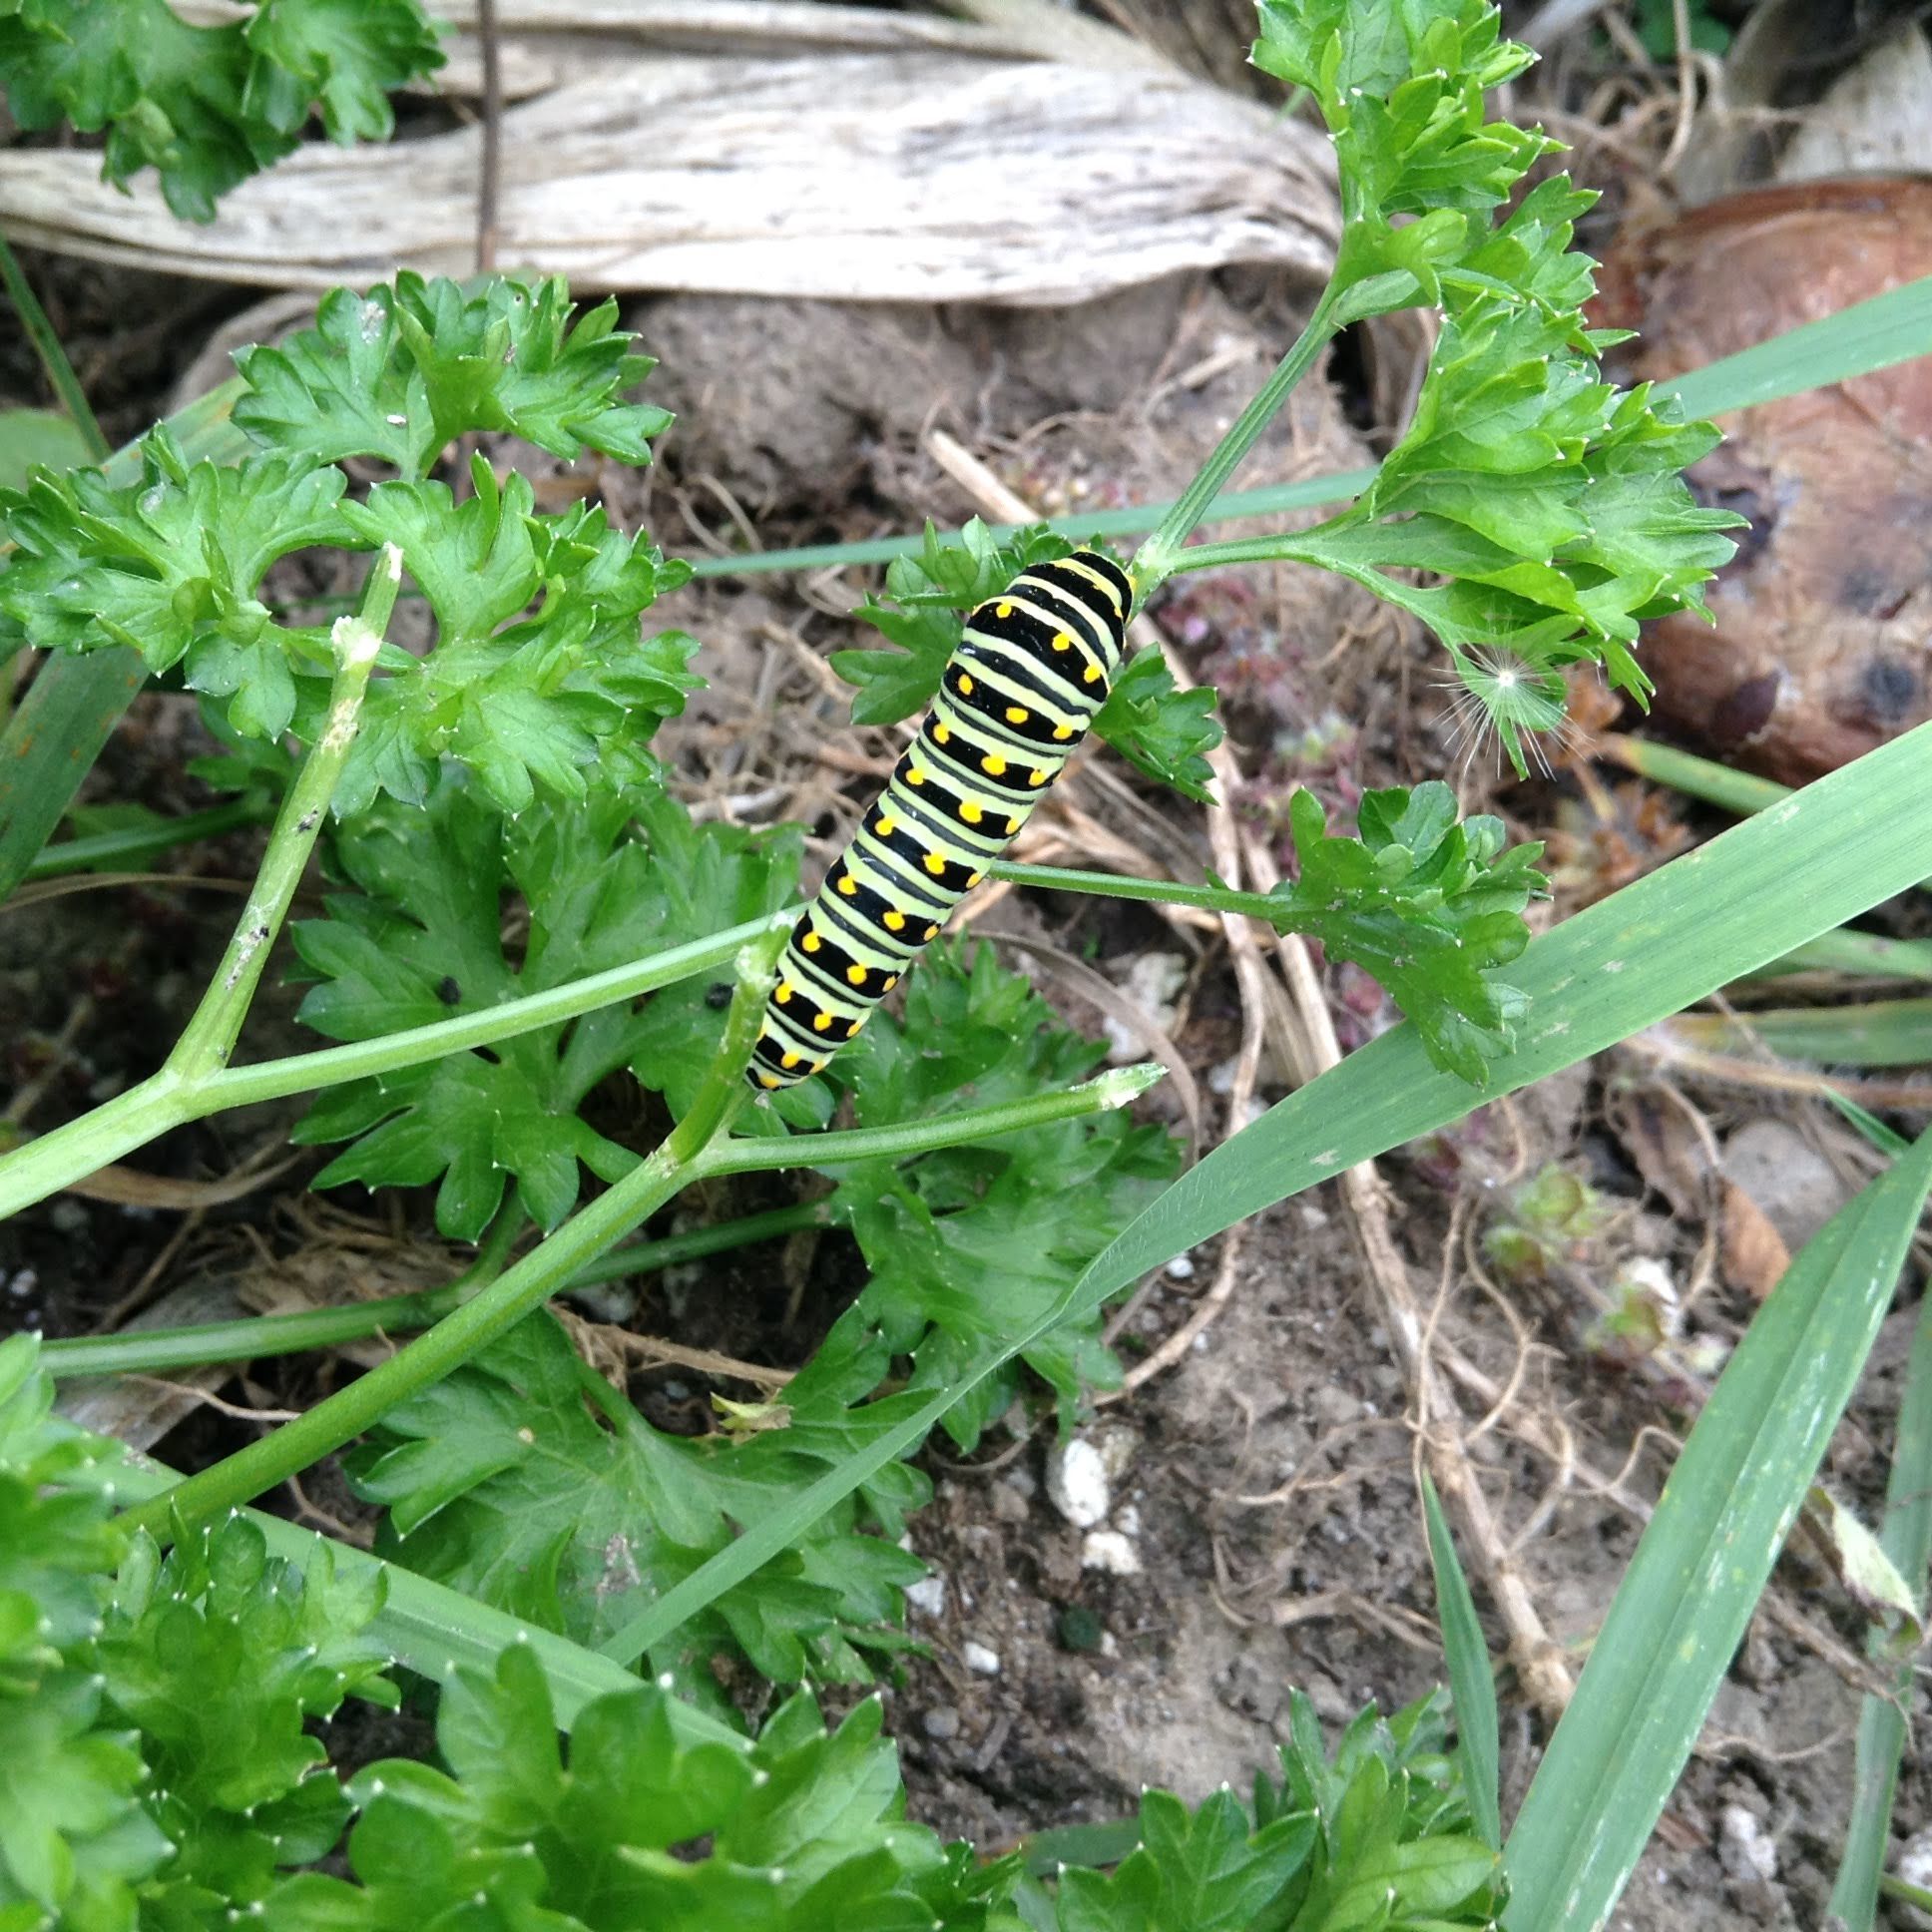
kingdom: Animalia
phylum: Arthropoda
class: Insecta
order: Lepidoptera
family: Papilionidae
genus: Papilio
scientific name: Papilio polyxenes
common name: Black swallowtail
